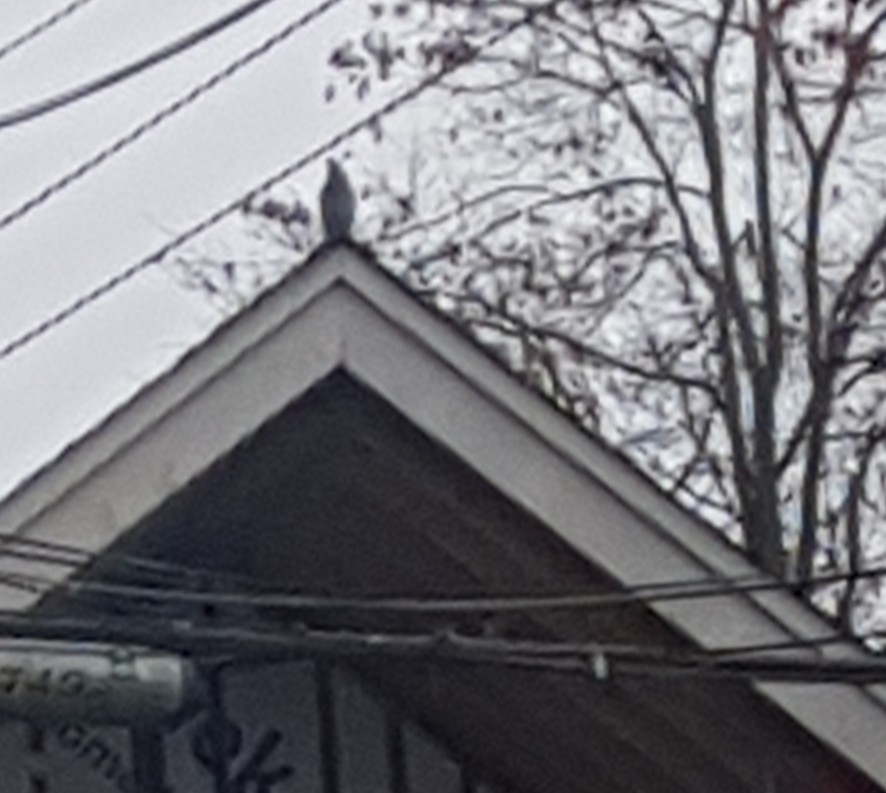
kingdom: Animalia
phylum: Chordata
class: Aves
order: Columbiformes
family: Columbidae
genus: Columba
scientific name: Columba livia
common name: Rock pigeon
